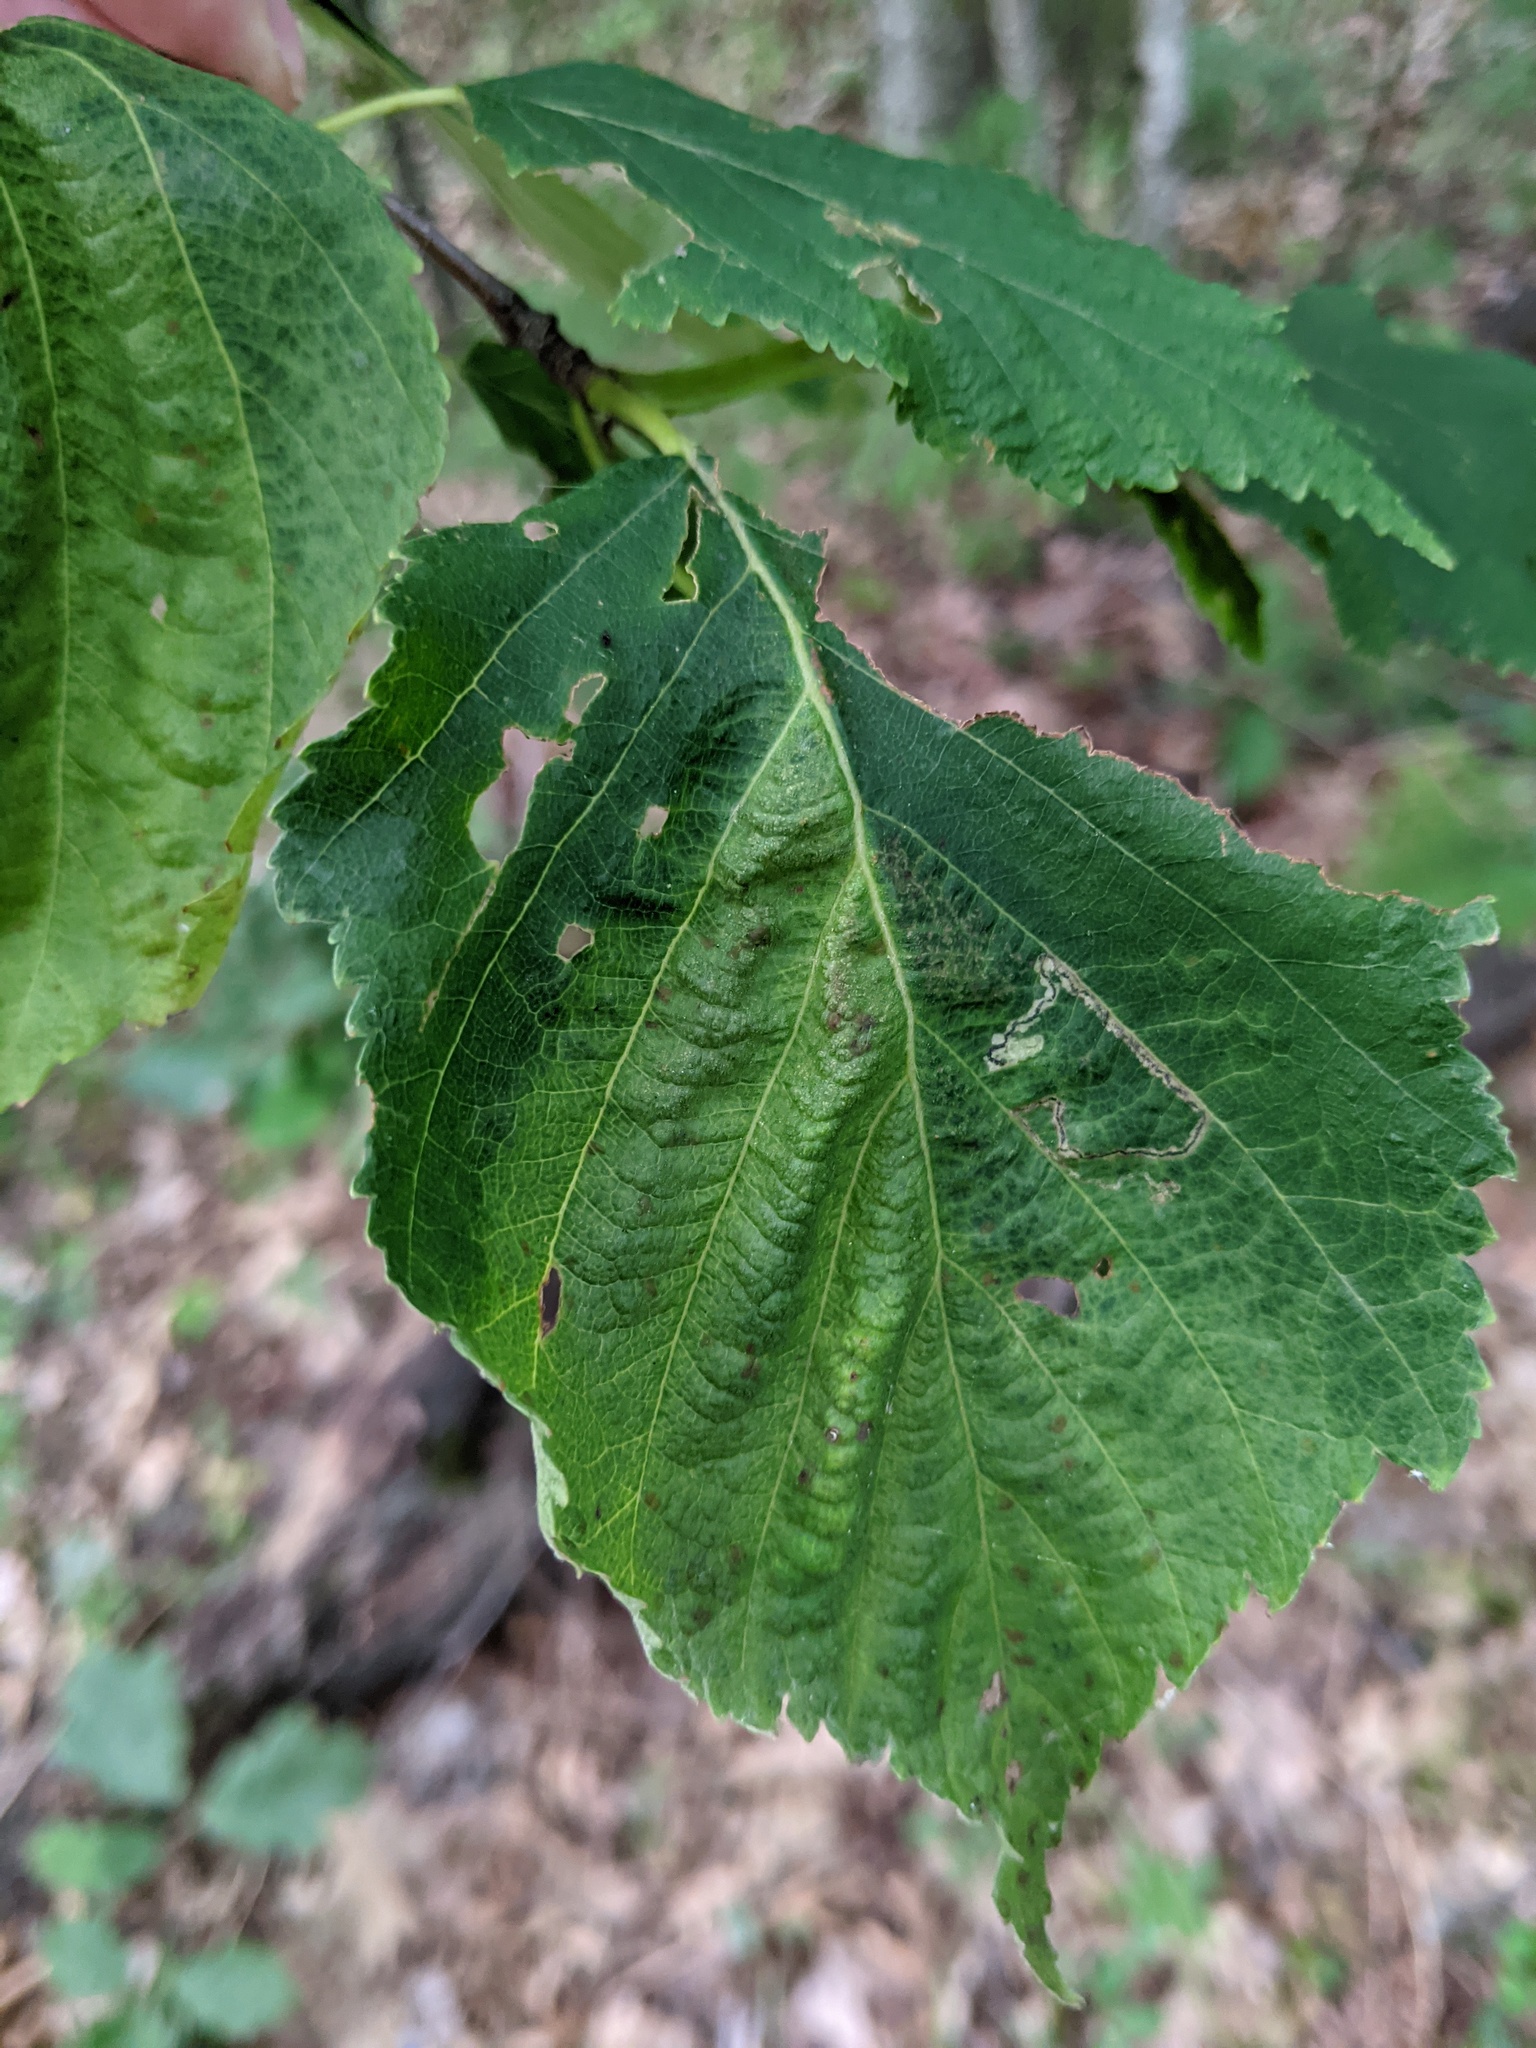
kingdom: Animalia
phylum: Arthropoda
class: Insecta
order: Hemiptera
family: Aphididae
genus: Hamamelistes
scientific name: Hamamelistes spinosus
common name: Witch hazel gall aphid
